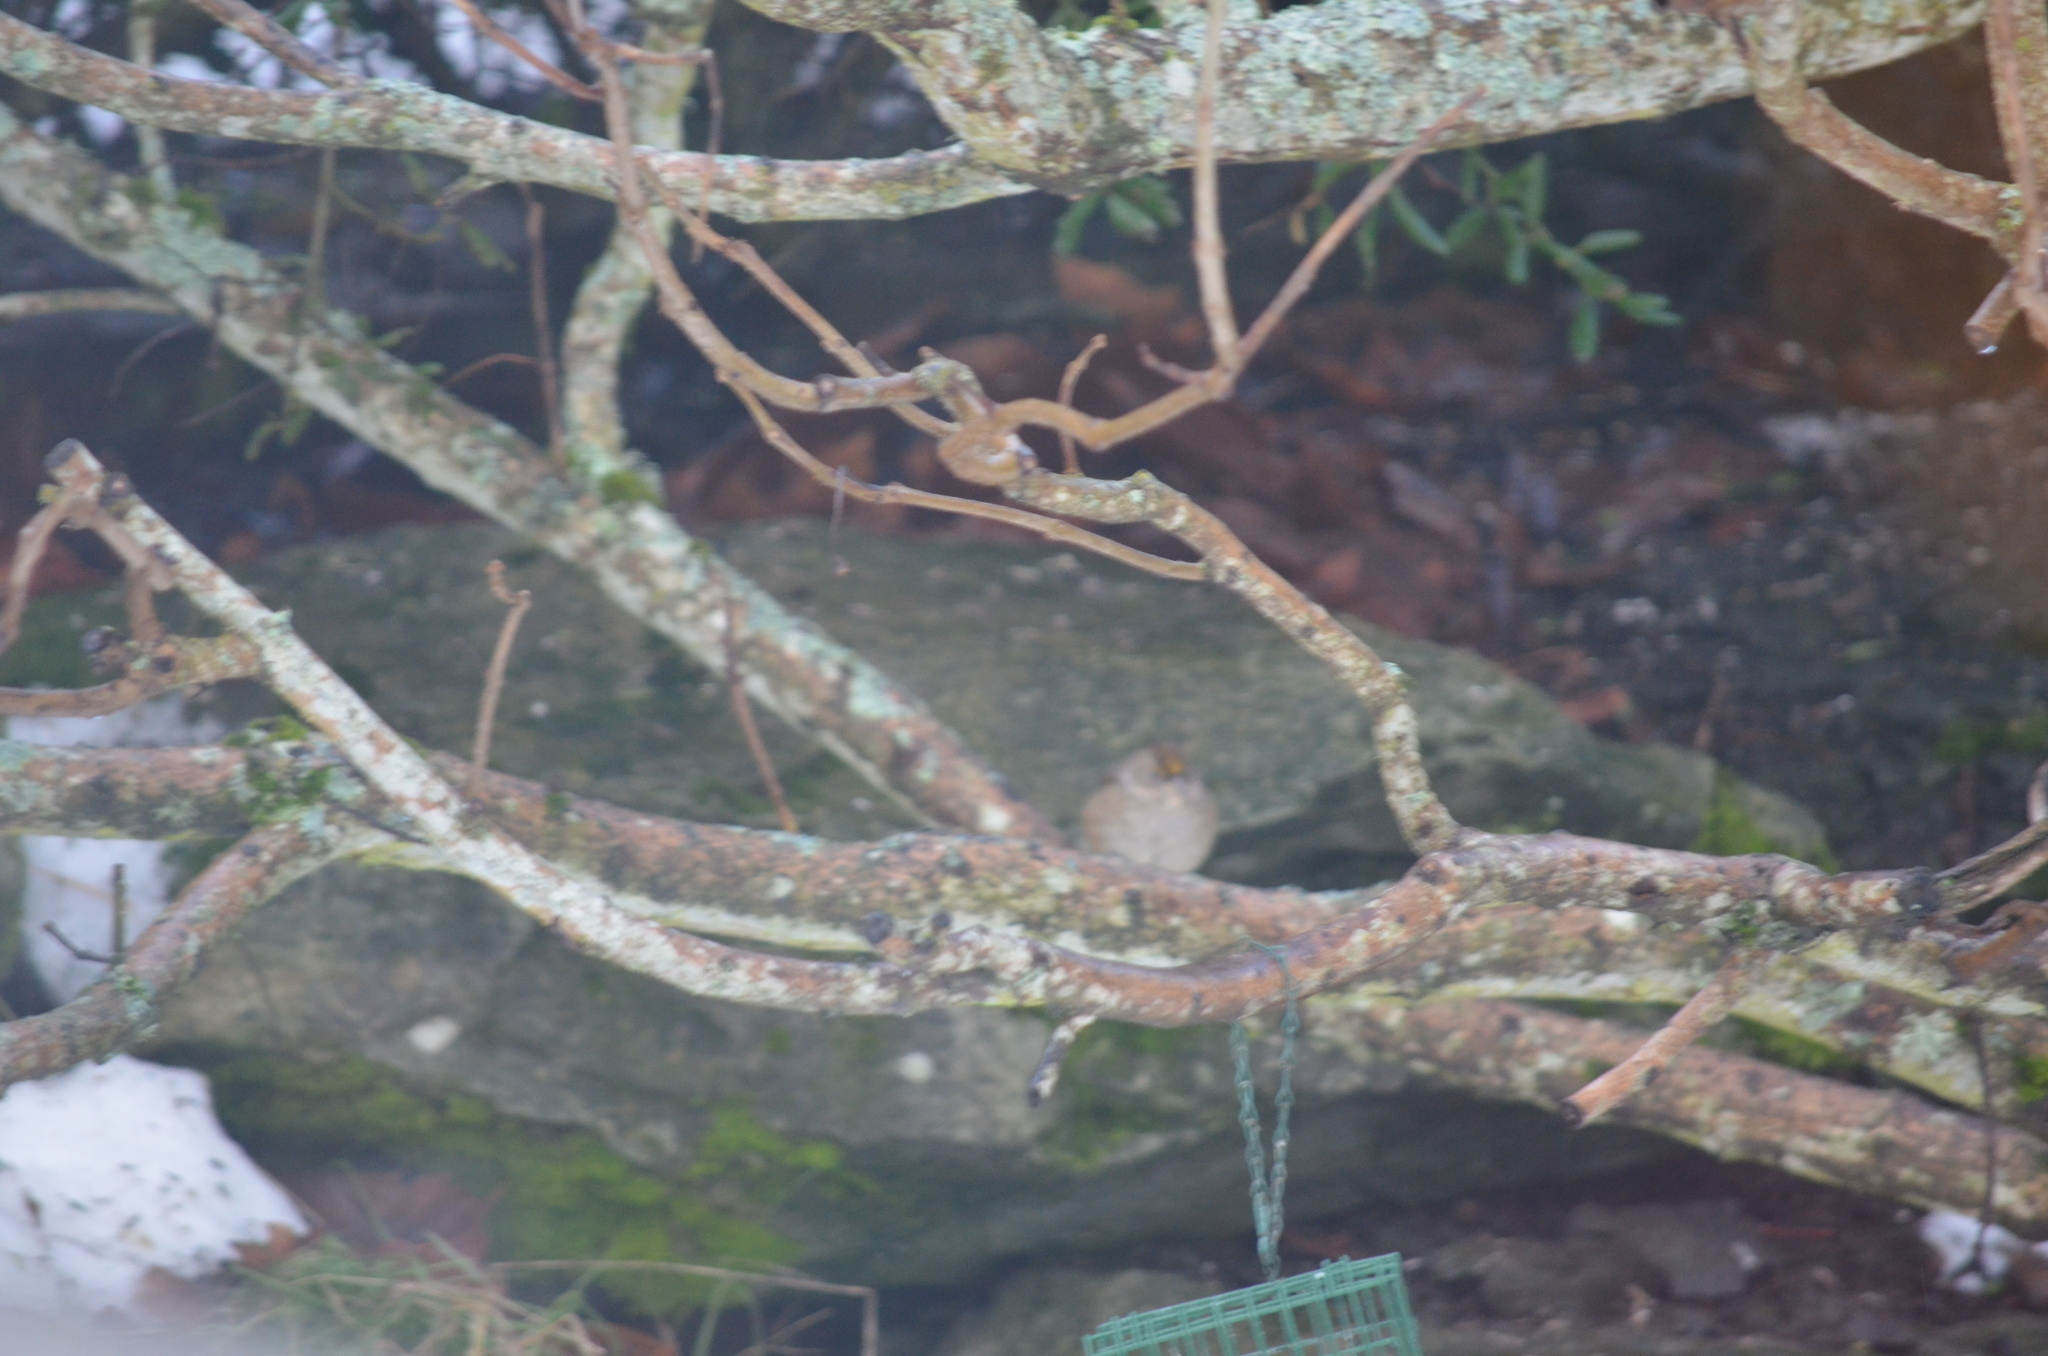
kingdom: Animalia
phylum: Chordata
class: Aves
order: Passeriformes
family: Passerellidae
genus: Zonotrichia
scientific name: Zonotrichia atricapilla
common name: Golden-crowned sparrow
